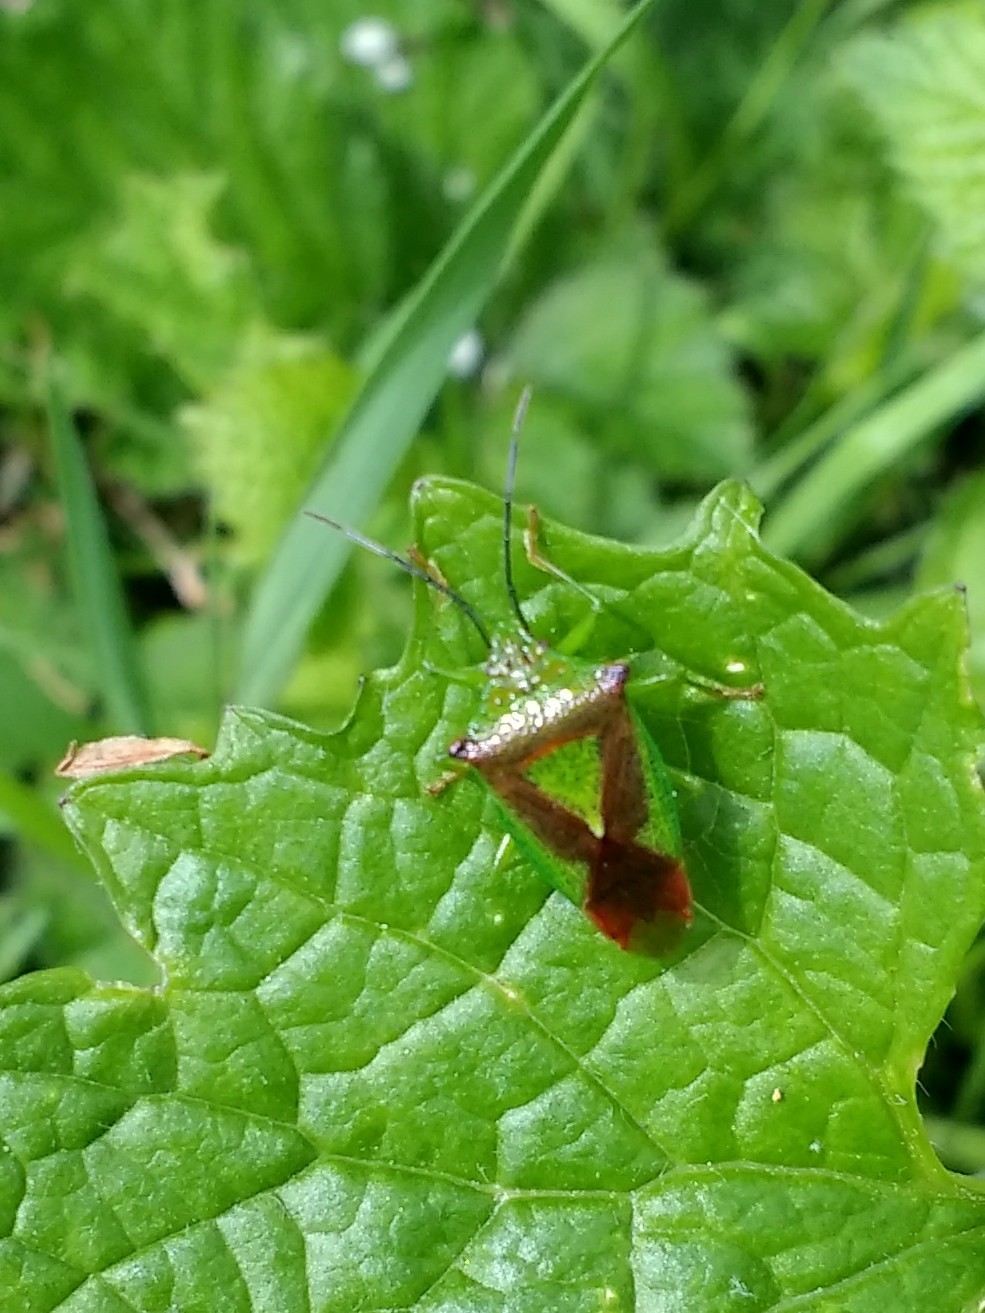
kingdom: Animalia
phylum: Arthropoda
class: Insecta
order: Hemiptera
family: Acanthosomatidae
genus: Acanthosoma
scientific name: Acanthosoma haemorrhoidale
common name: Hawthorn shieldbug
